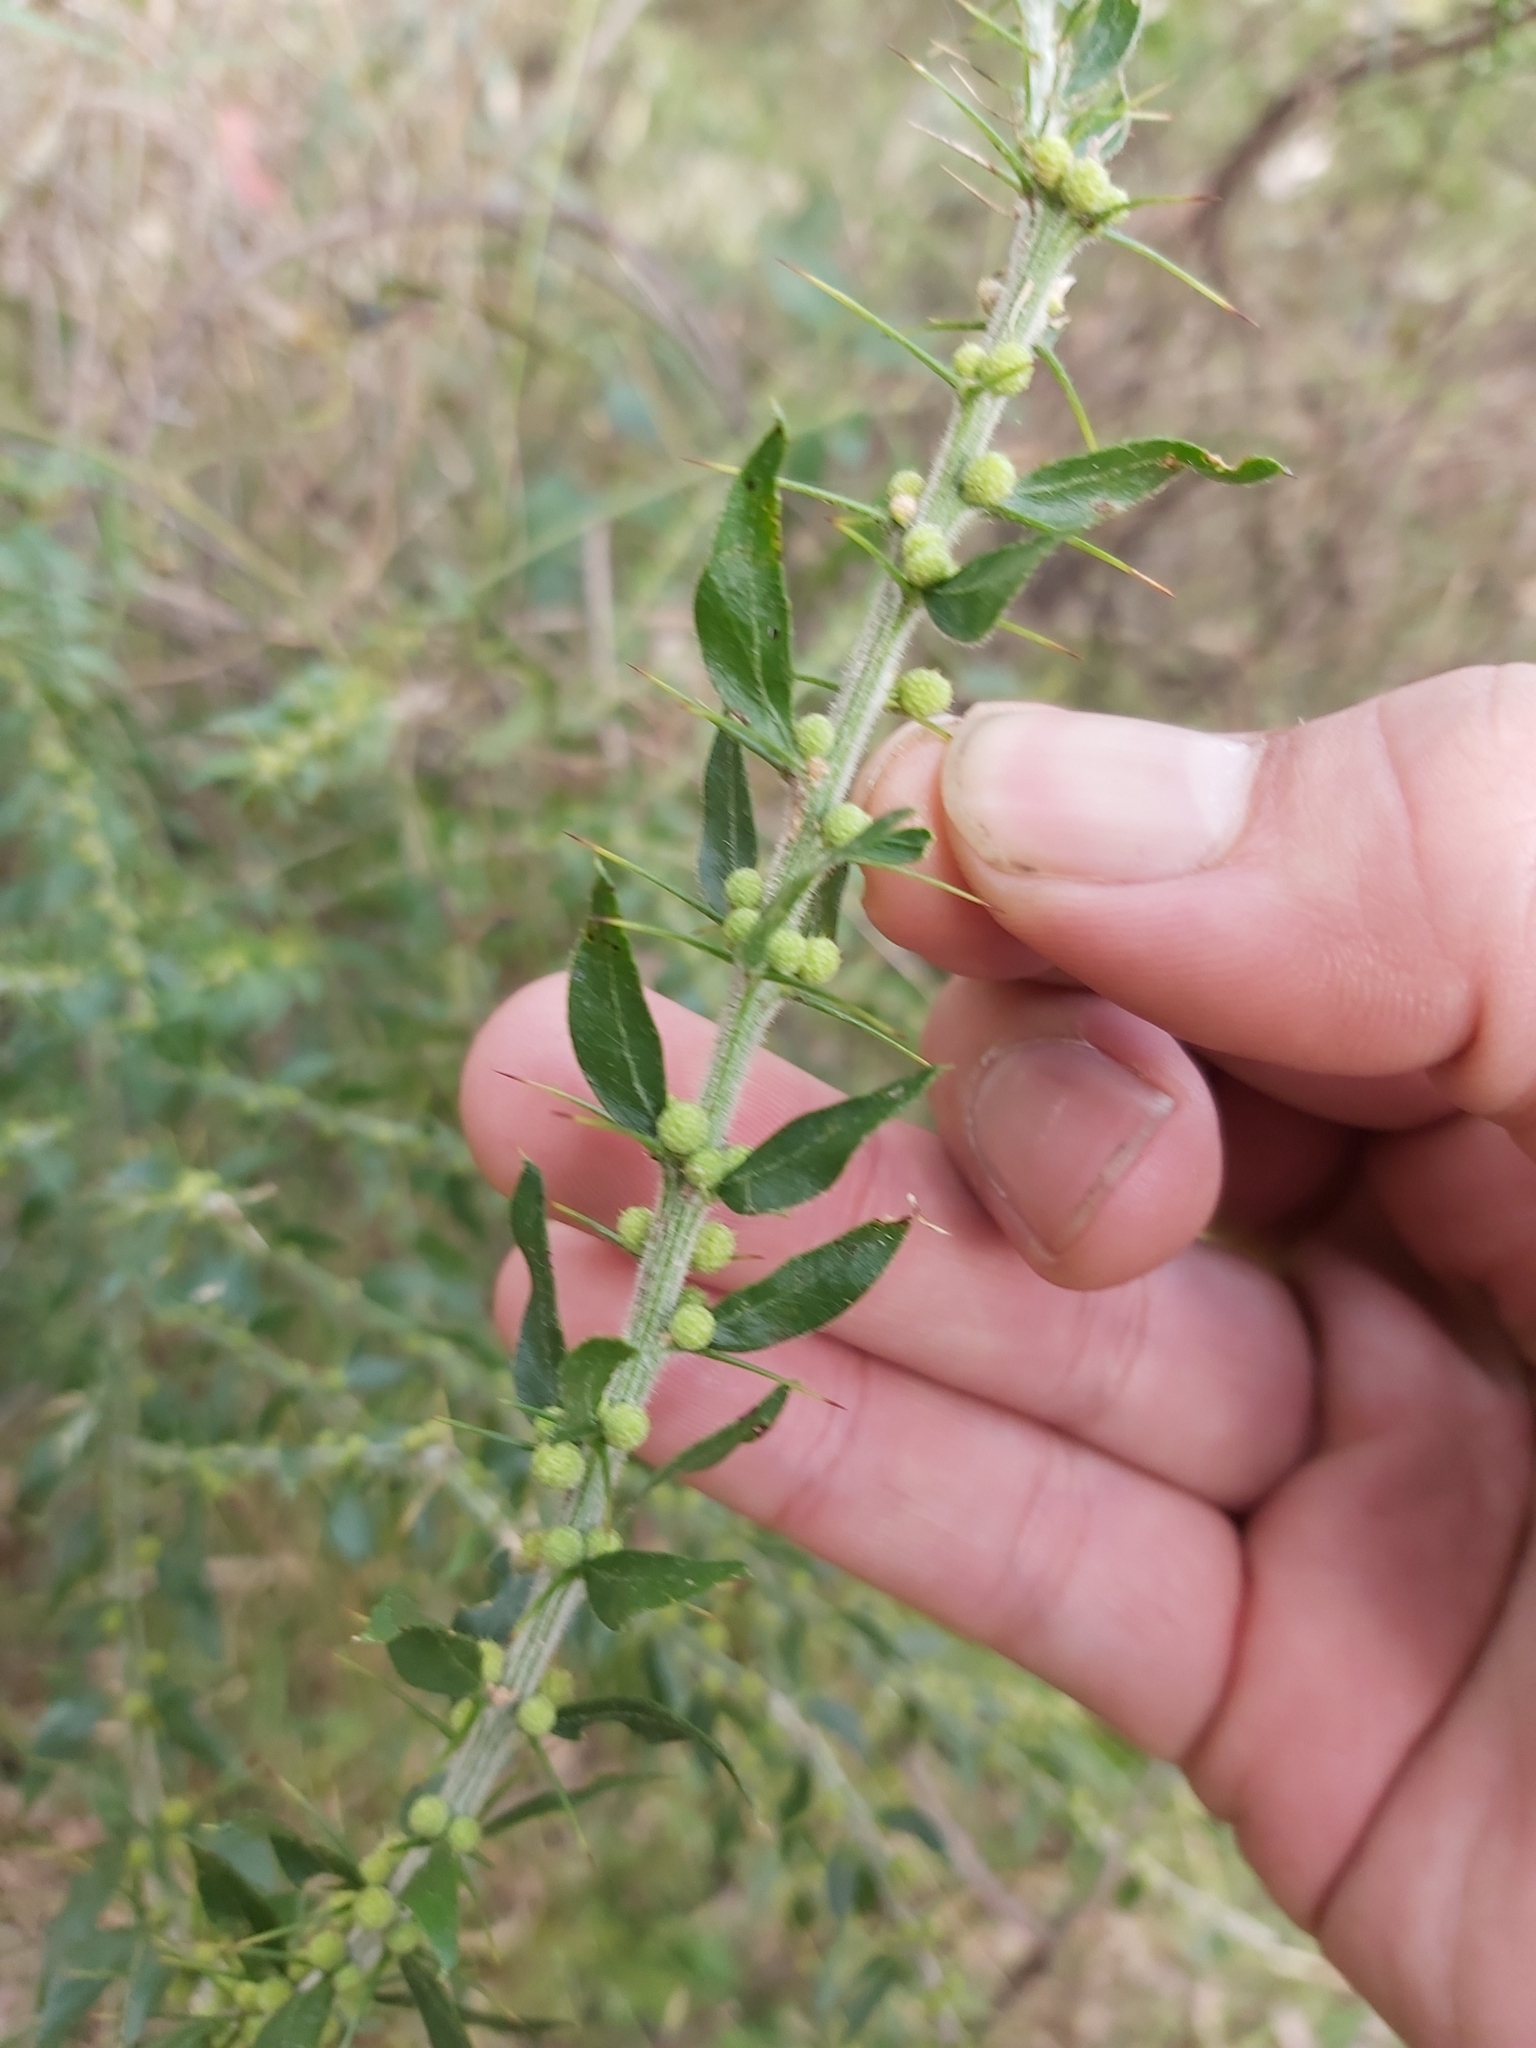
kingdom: Plantae
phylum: Tracheophyta
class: Magnoliopsida
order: Fabales
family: Fabaceae
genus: Acacia
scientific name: Acacia paradoxa
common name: Paradox acacia
